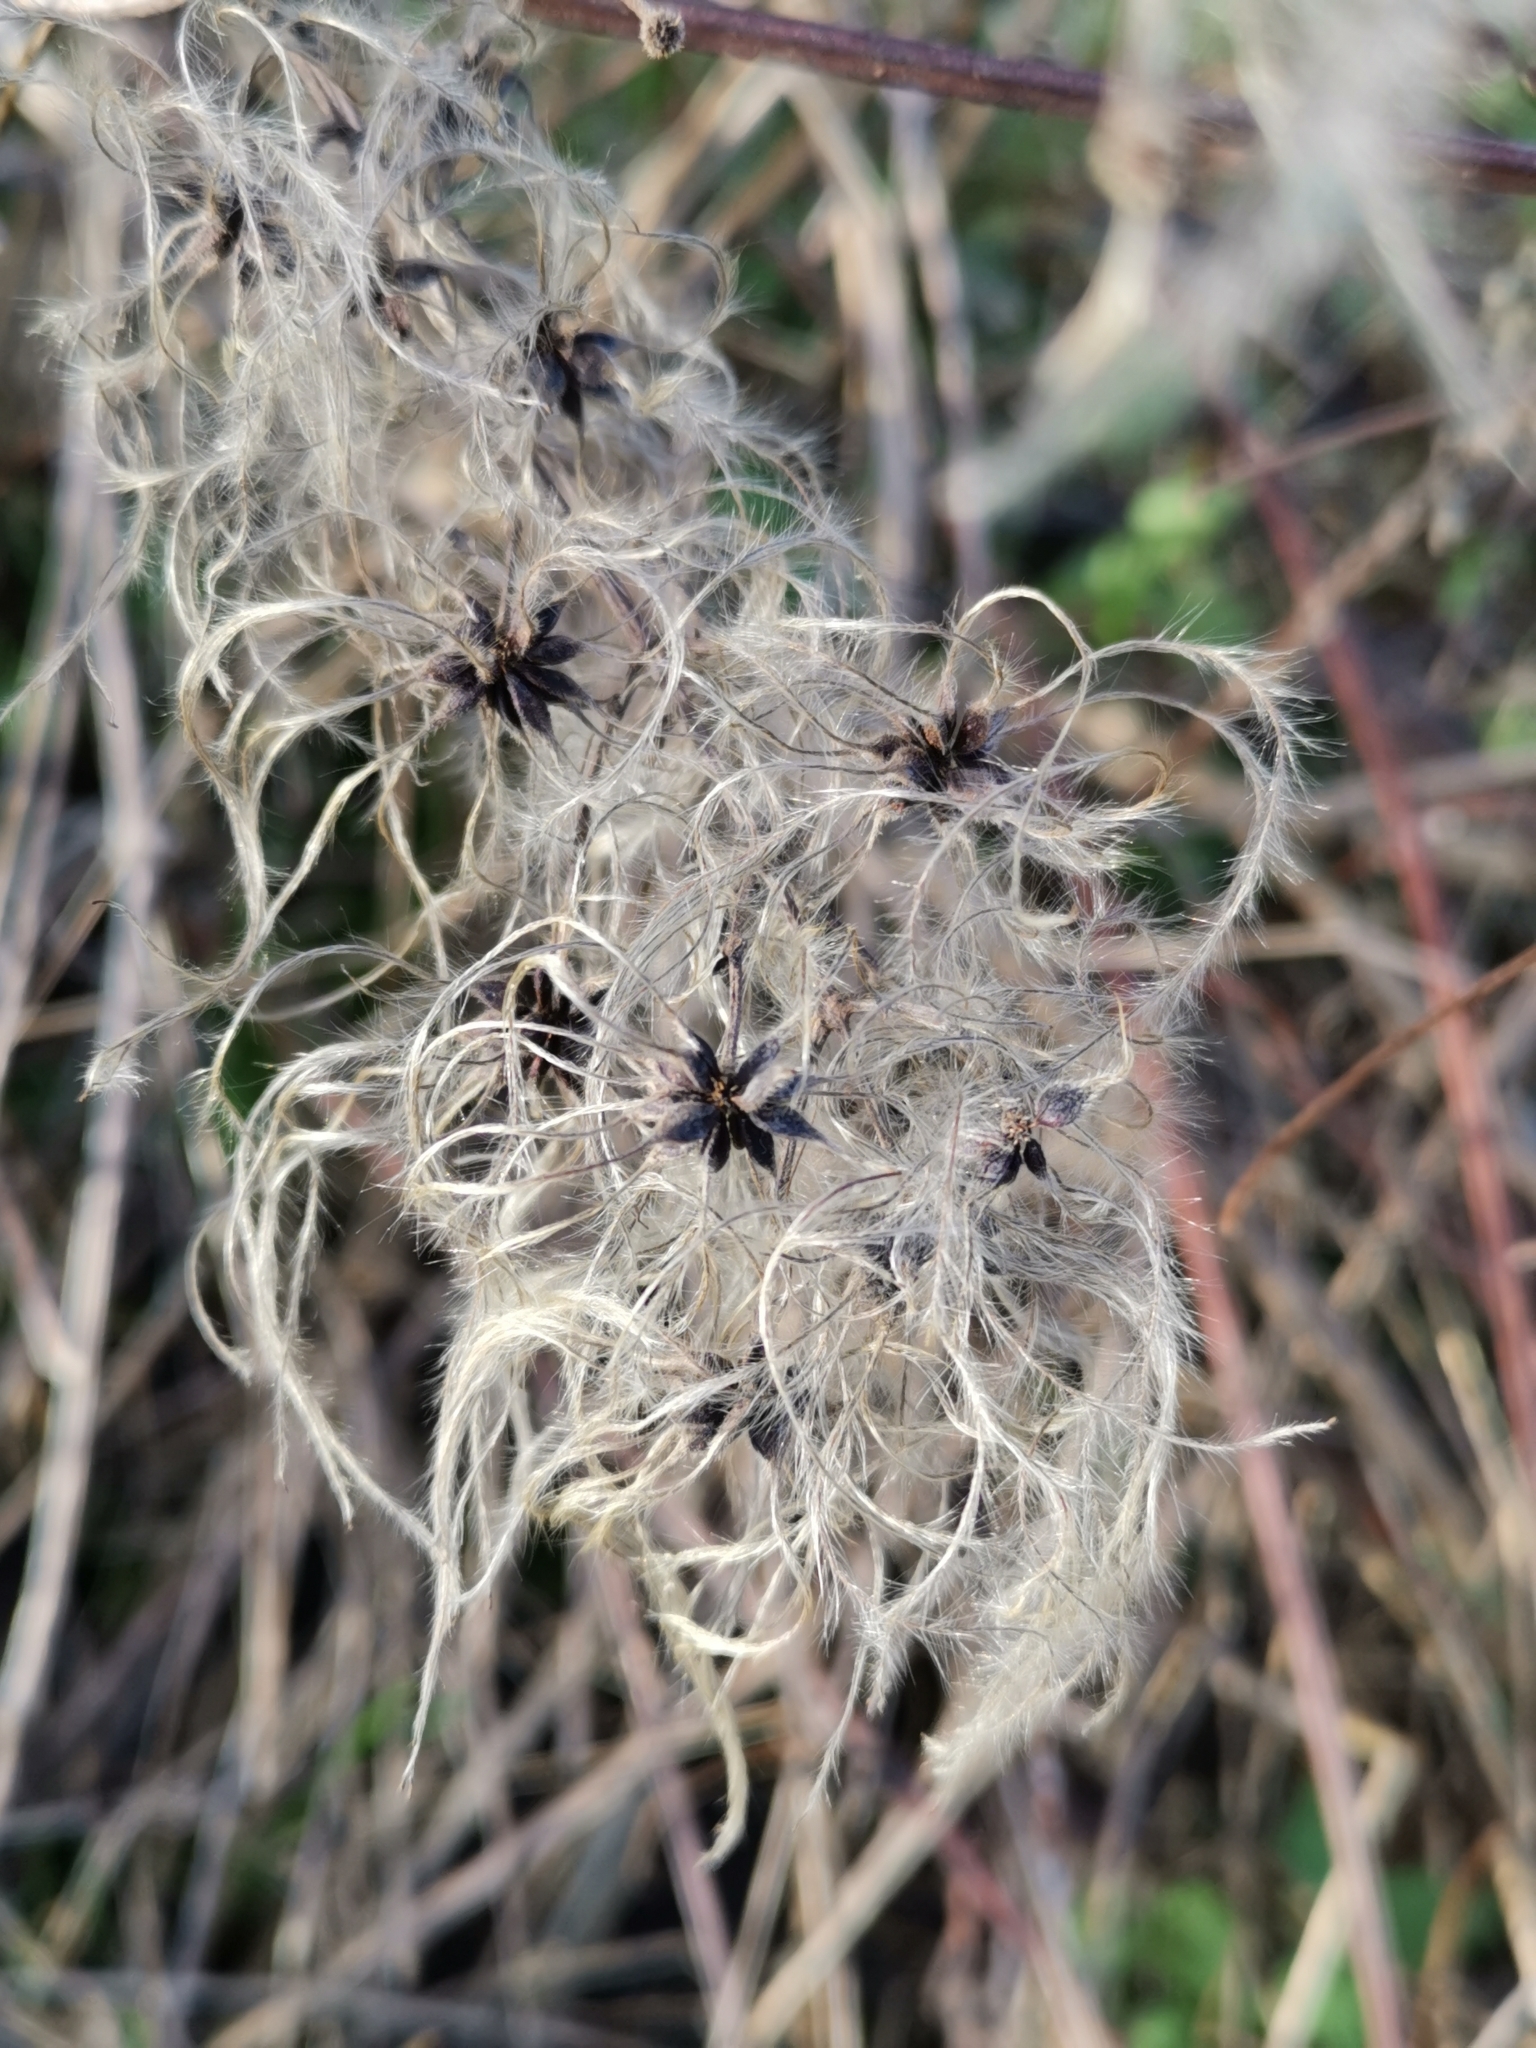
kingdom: Plantae
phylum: Tracheophyta
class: Magnoliopsida
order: Ranunculales
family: Ranunculaceae
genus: Clematis
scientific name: Clematis vitalba
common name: Evergreen clematis
